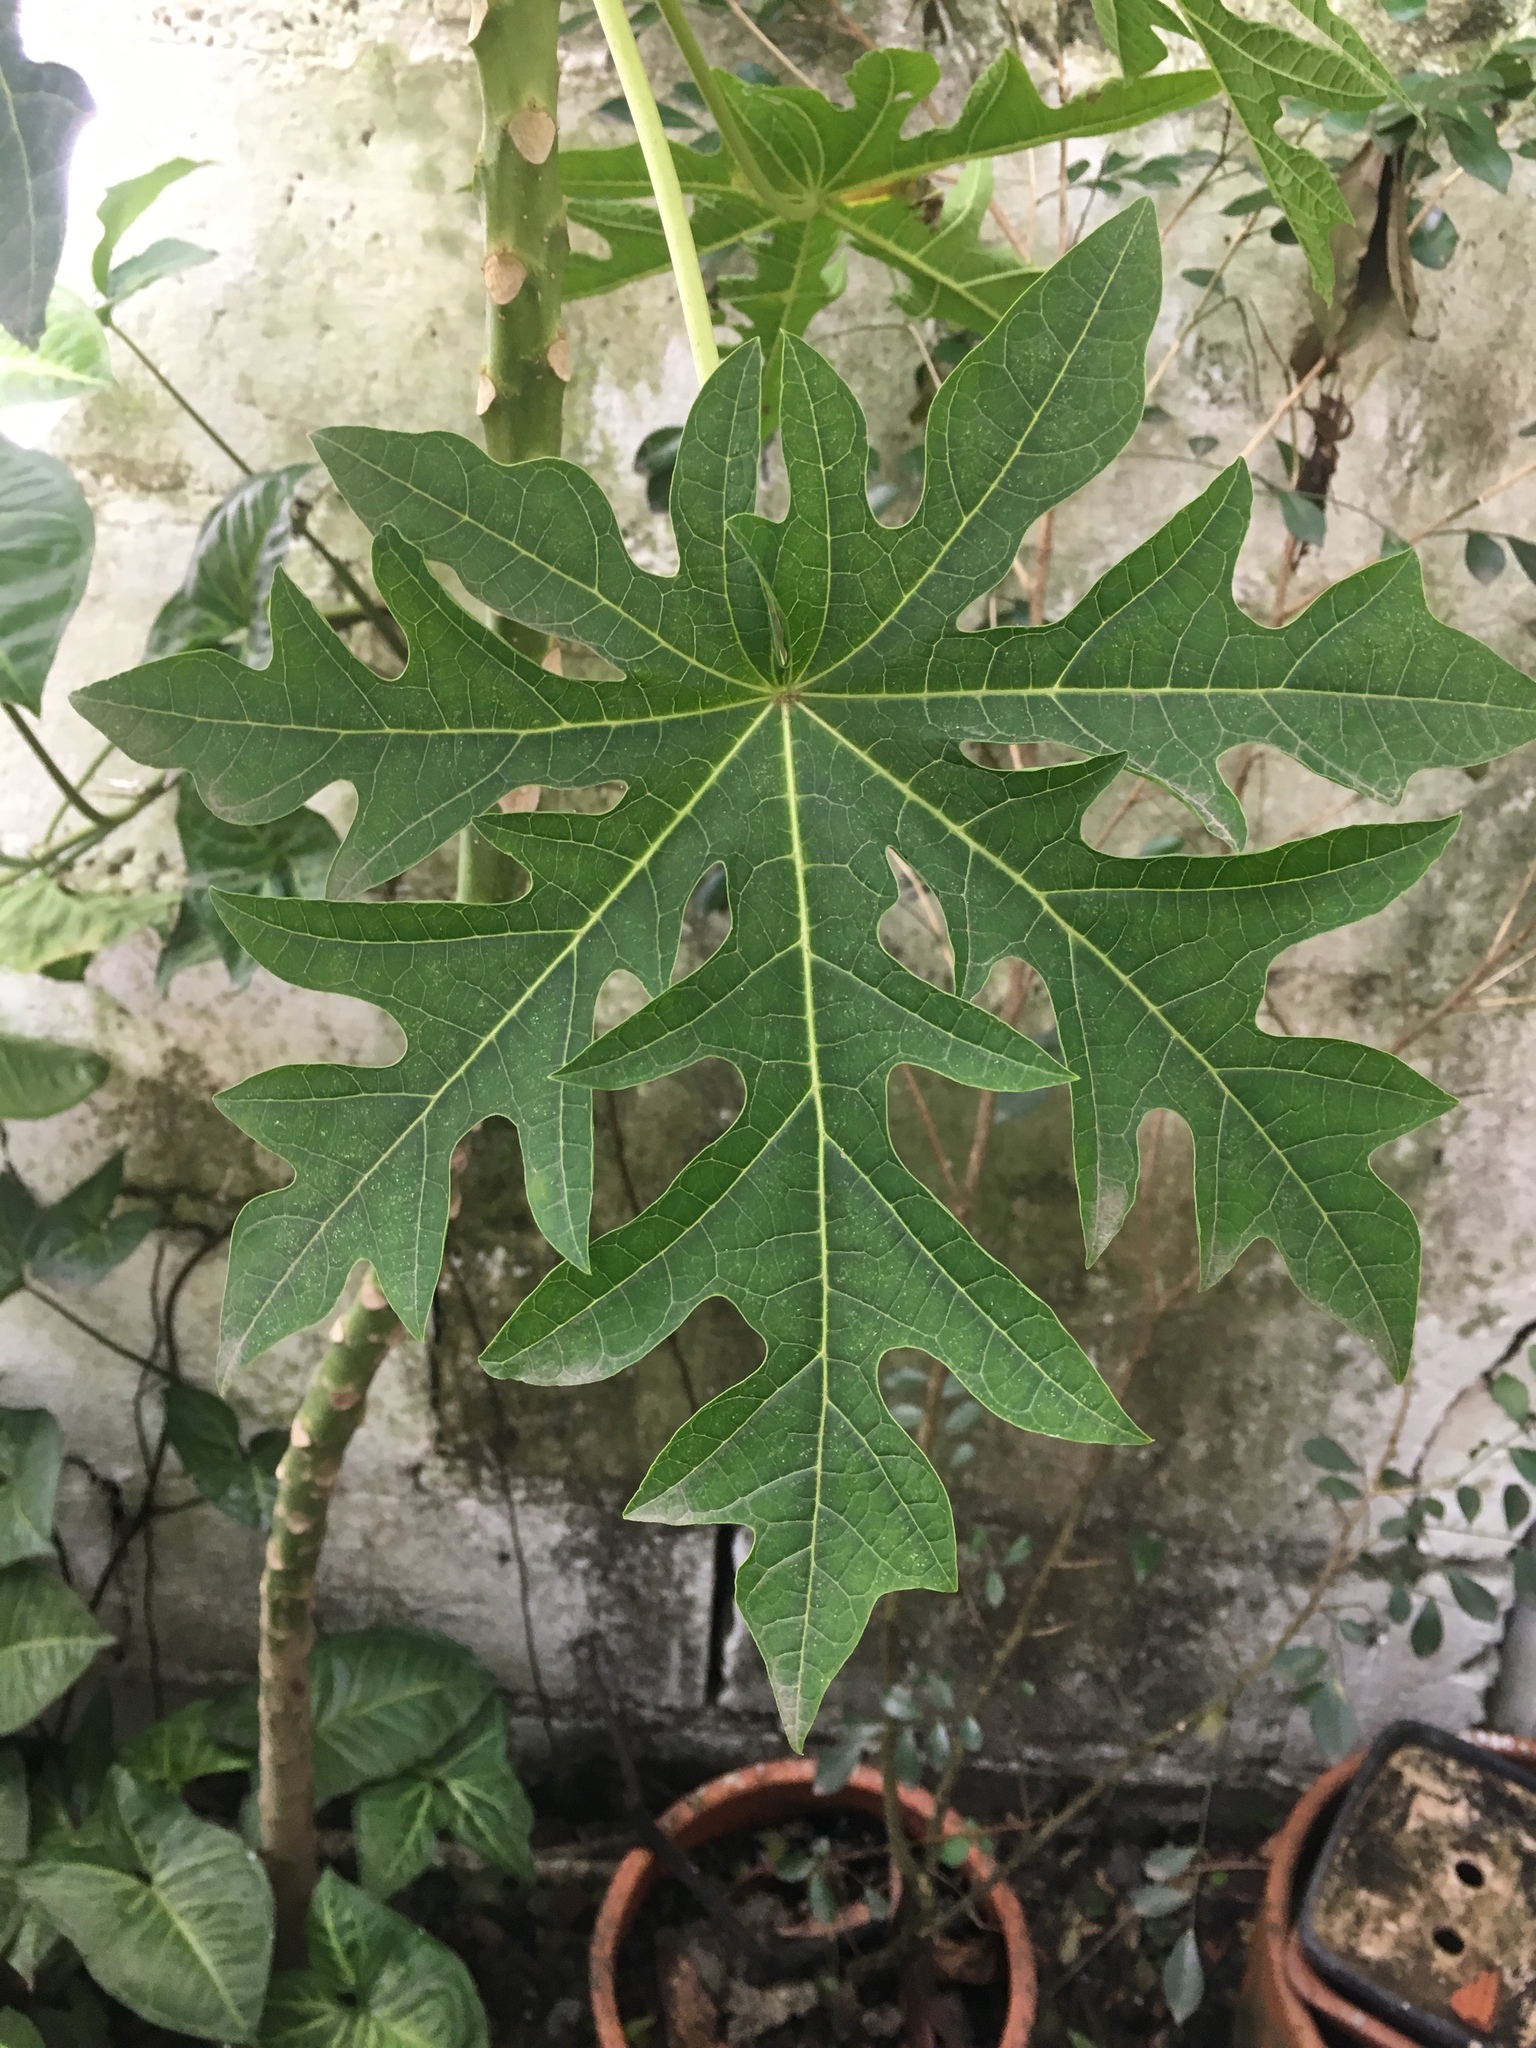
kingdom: Plantae
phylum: Tracheophyta
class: Magnoliopsida
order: Brassicales
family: Caricaceae
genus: Carica
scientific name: Carica papaya
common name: Papaya
